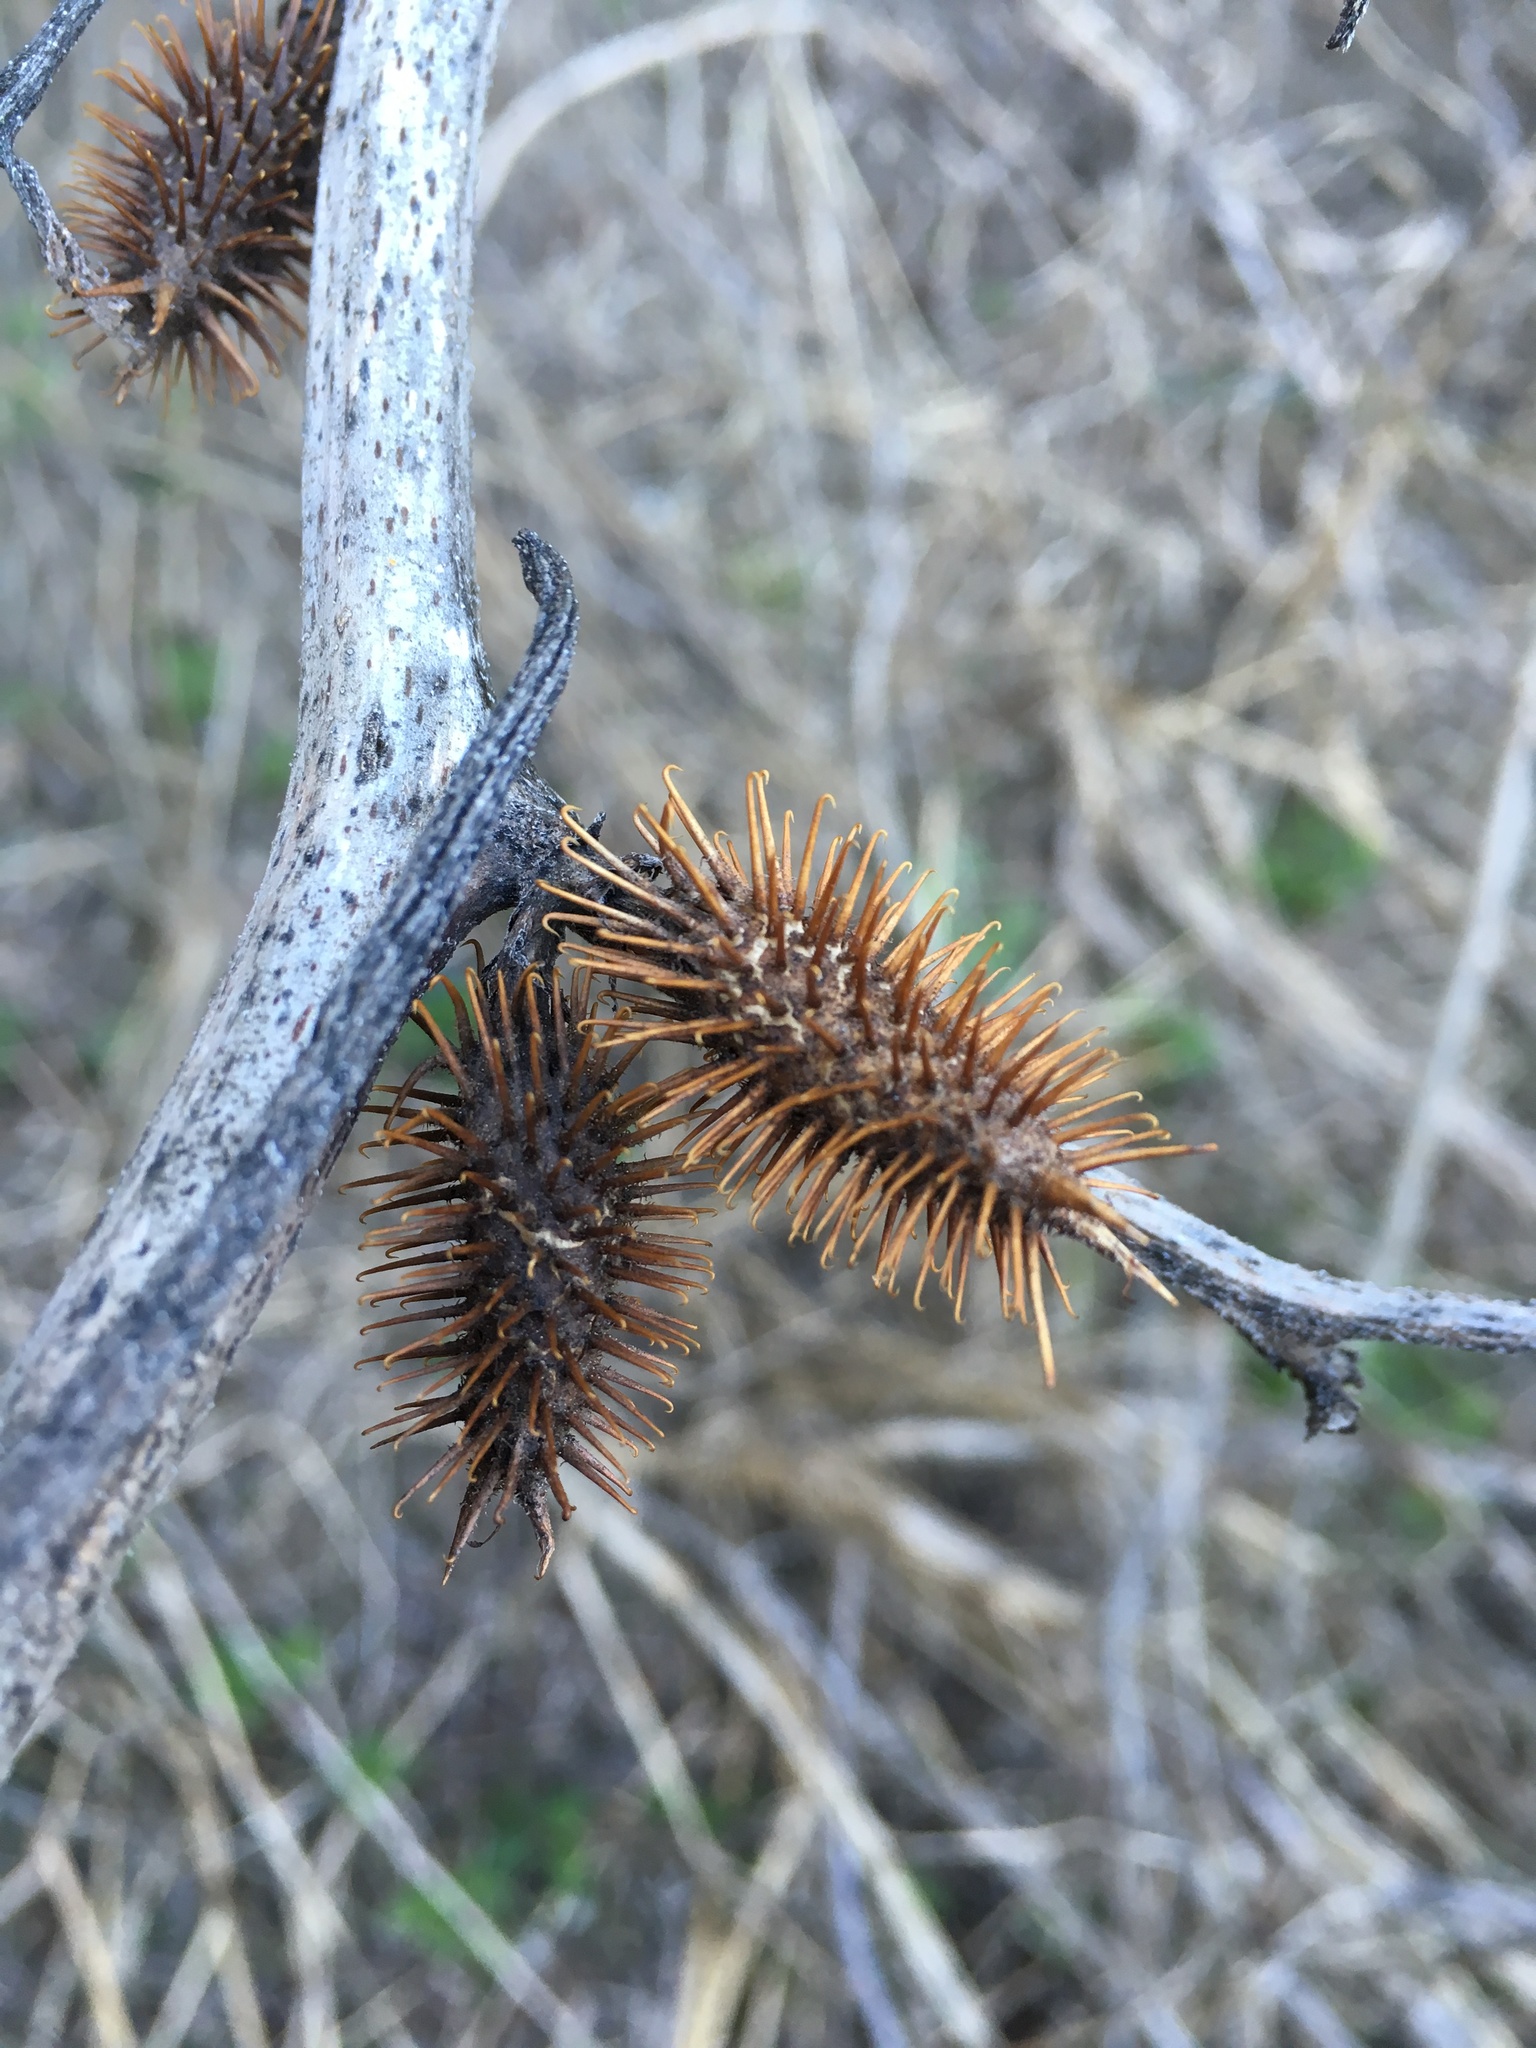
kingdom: Plantae
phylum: Tracheophyta
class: Magnoliopsida
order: Asterales
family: Asteraceae
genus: Xanthium
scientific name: Xanthium strumarium
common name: Rough cocklebur
